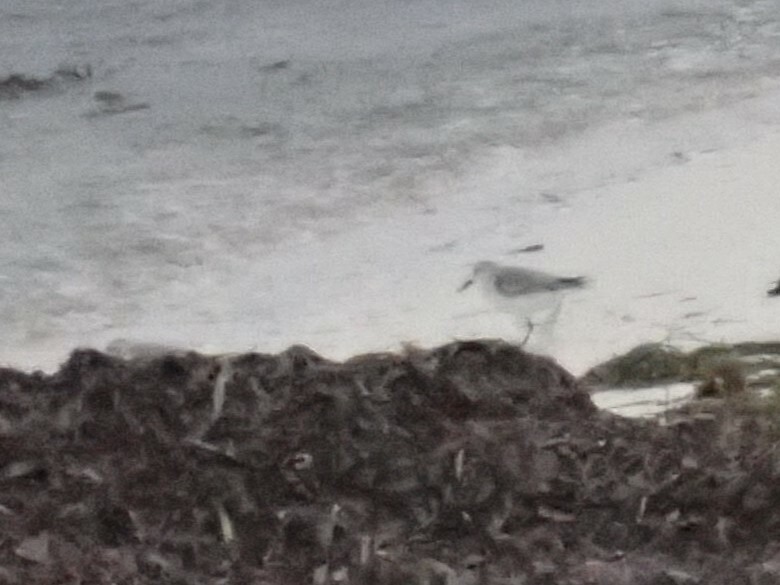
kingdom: Animalia
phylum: Chordata
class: Aves
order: Charadriiformes
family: Scolopacidae
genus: Calidris
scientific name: Calidris alba
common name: Sanderling
